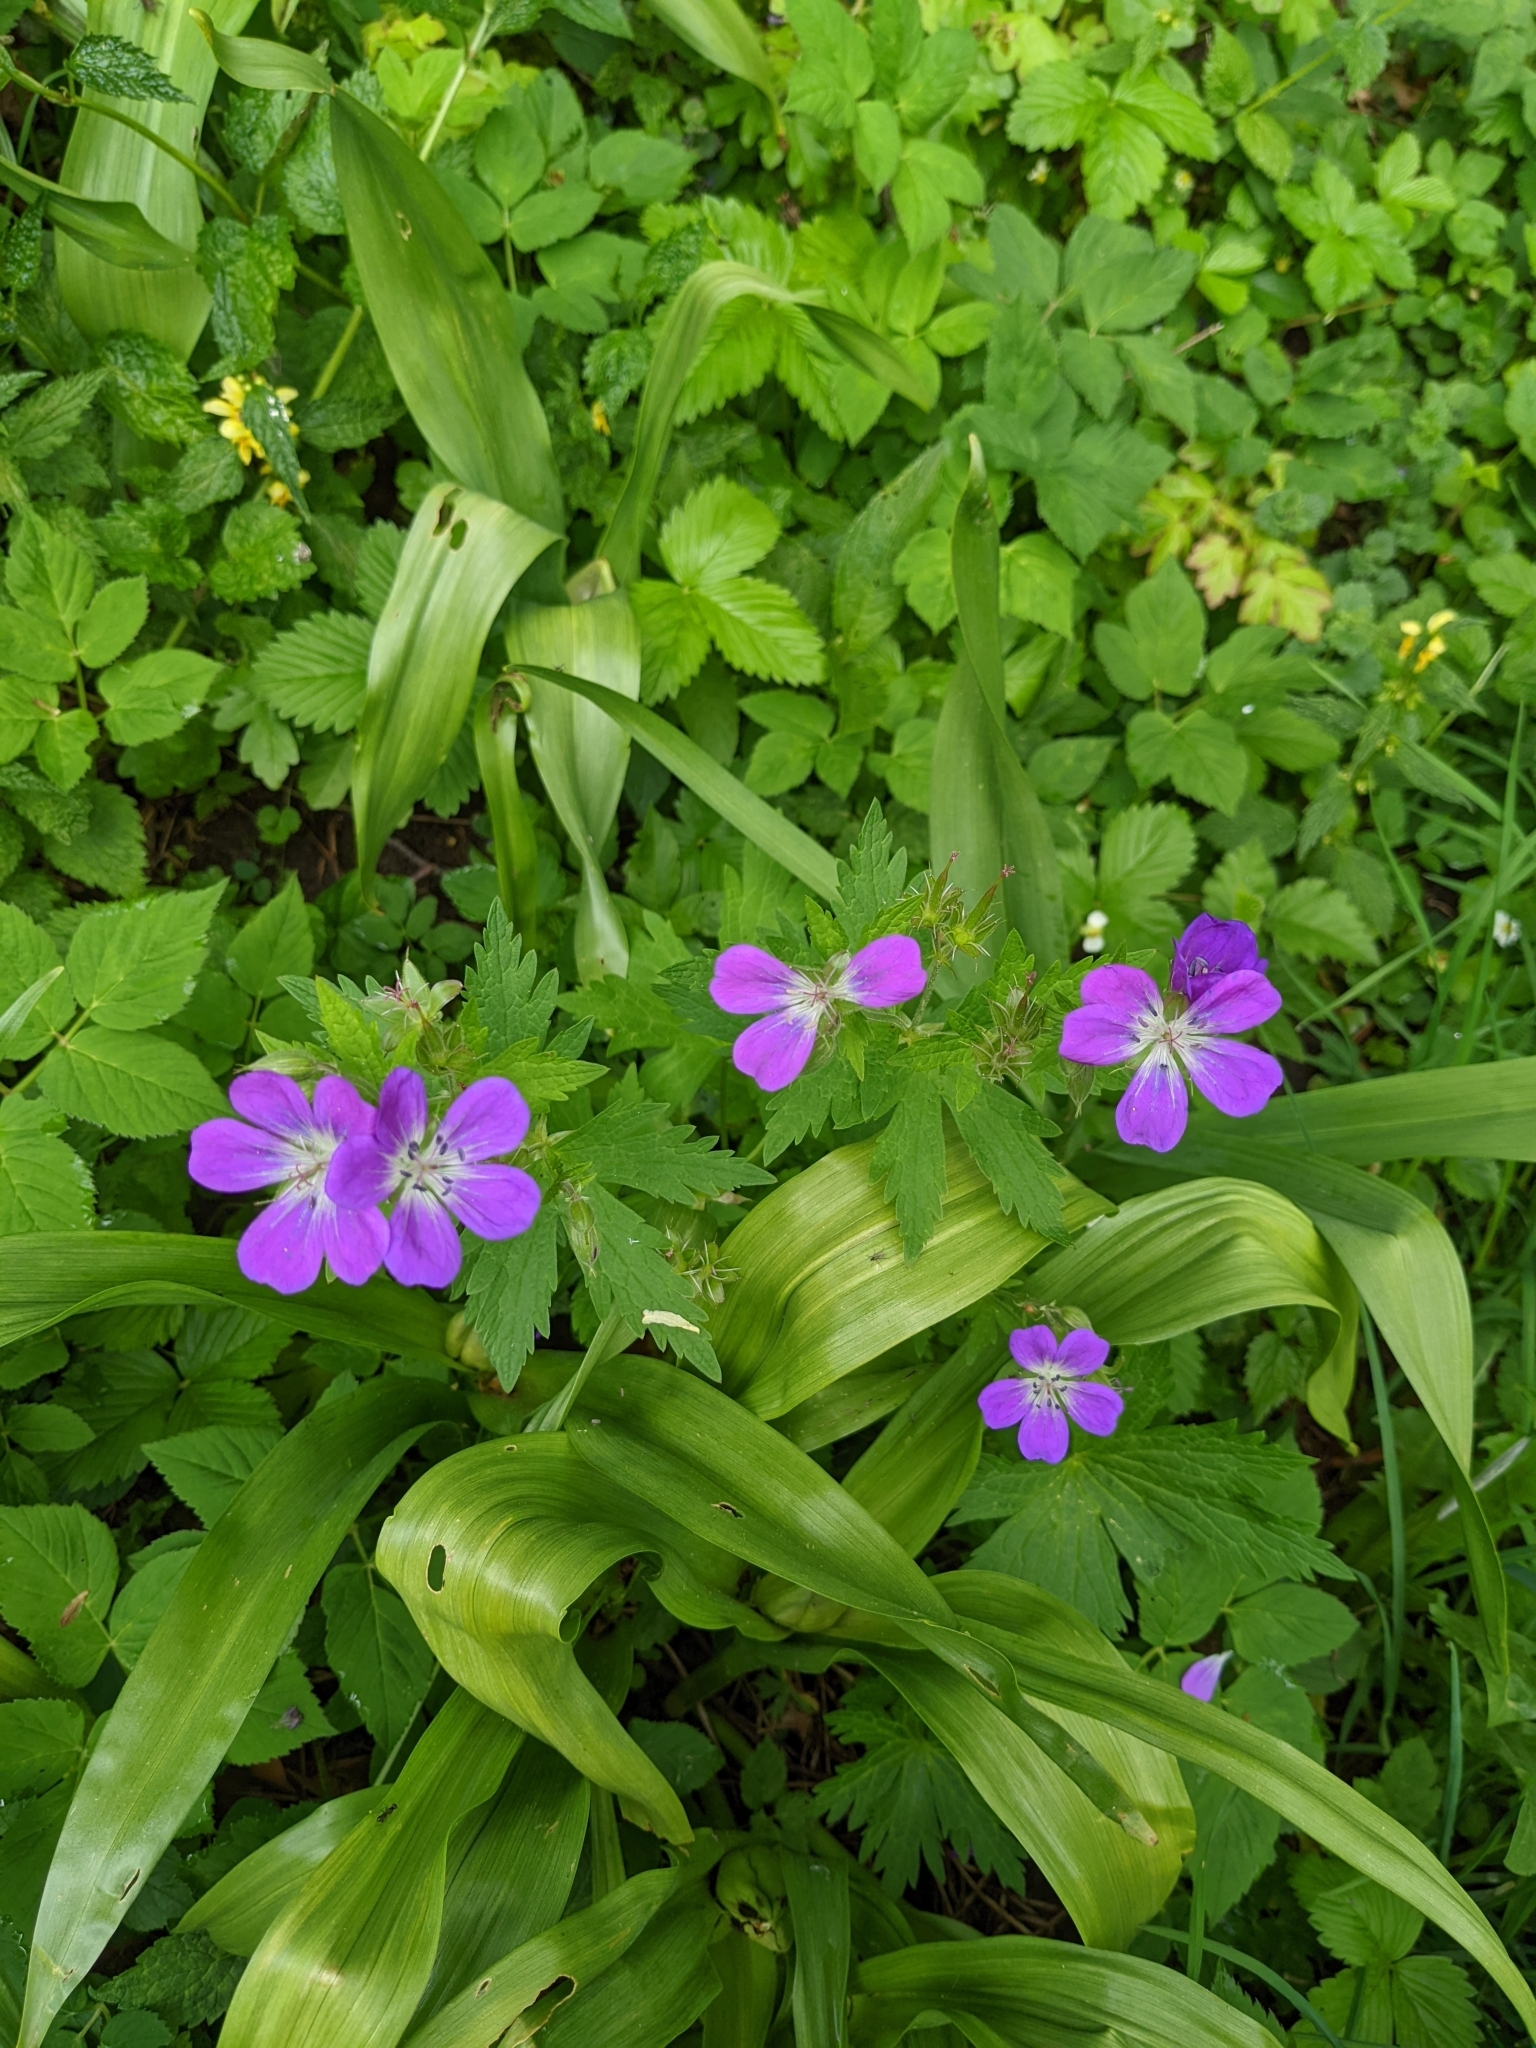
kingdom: Plantae
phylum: Tracheophyta
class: Magnoliopsida
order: Geraniales
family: Geraniaceae
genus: Geranium
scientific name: Geranium sylvaticum
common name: Wood crane's-bill
